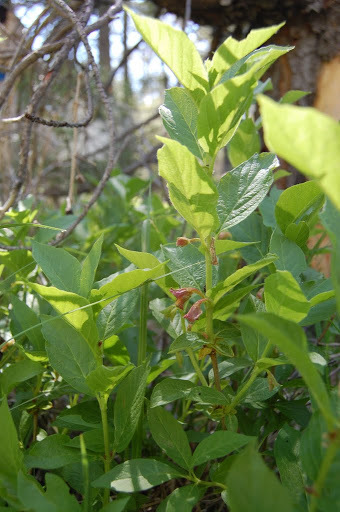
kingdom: Plantae
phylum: Tracheophyta
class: Magnoliopsida
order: Dipsacales
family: Caprifoliaceae
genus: Lonicera
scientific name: Lonicera involucrata
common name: Californian honeysuckle
